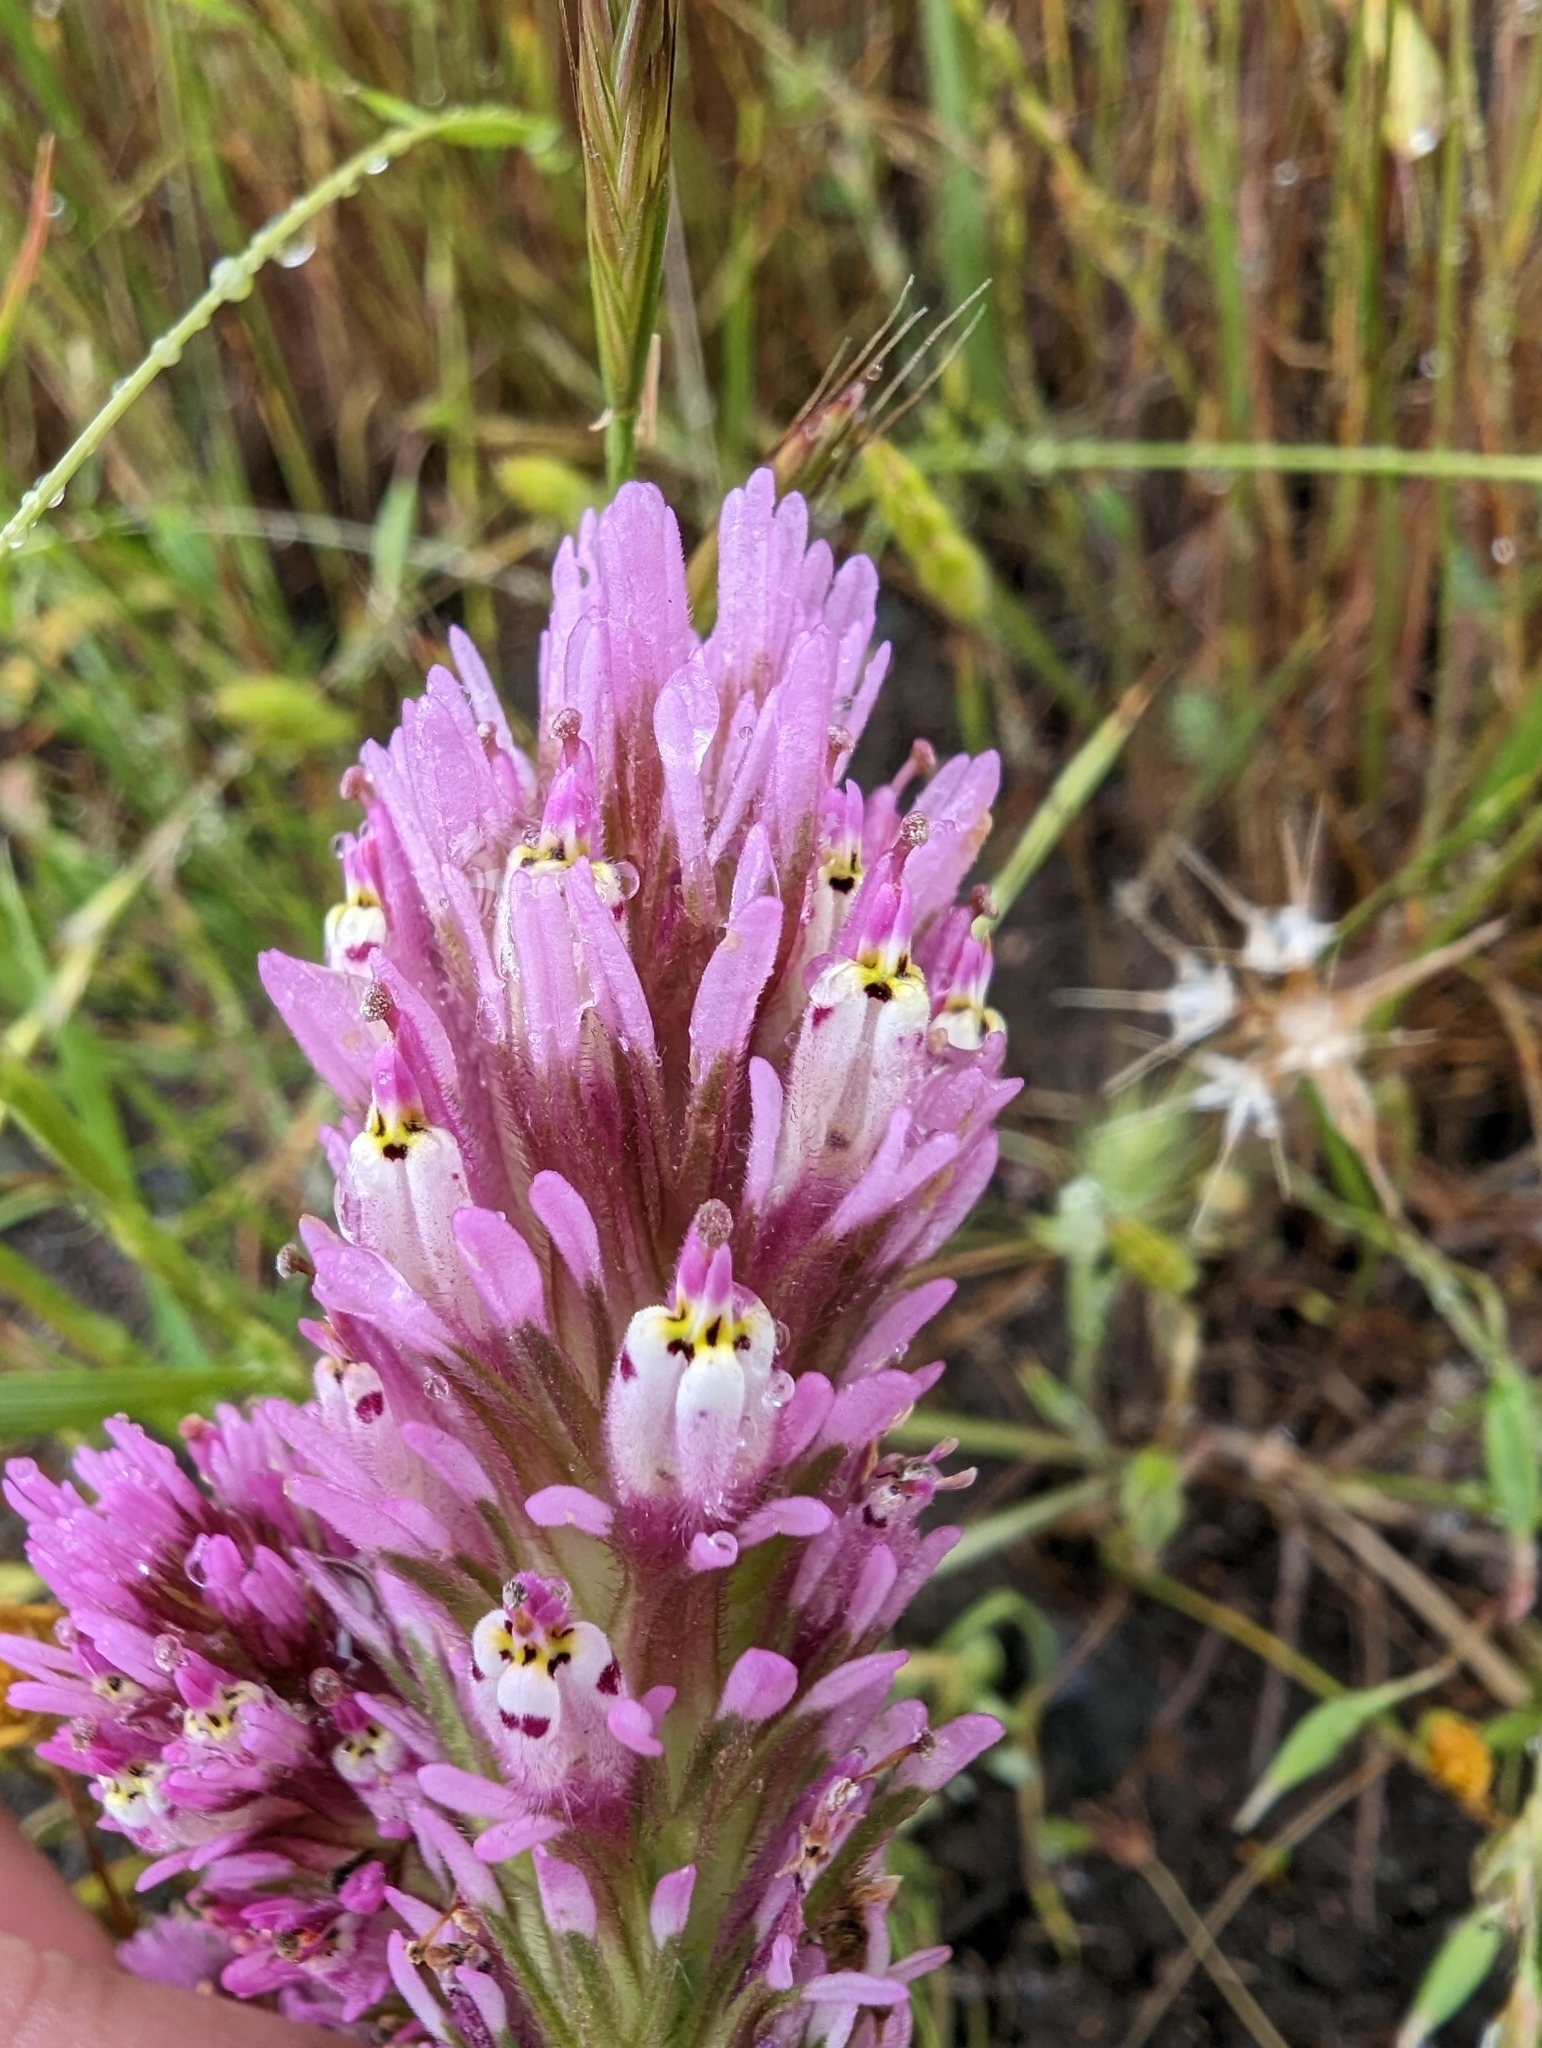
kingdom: Plantae
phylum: Tracheophyta
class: Magnoliopsida
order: Lamiales
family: Orobanchaceae
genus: Castilleja
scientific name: Castilleja densiflora
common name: Dense-flower indian paintbrush
